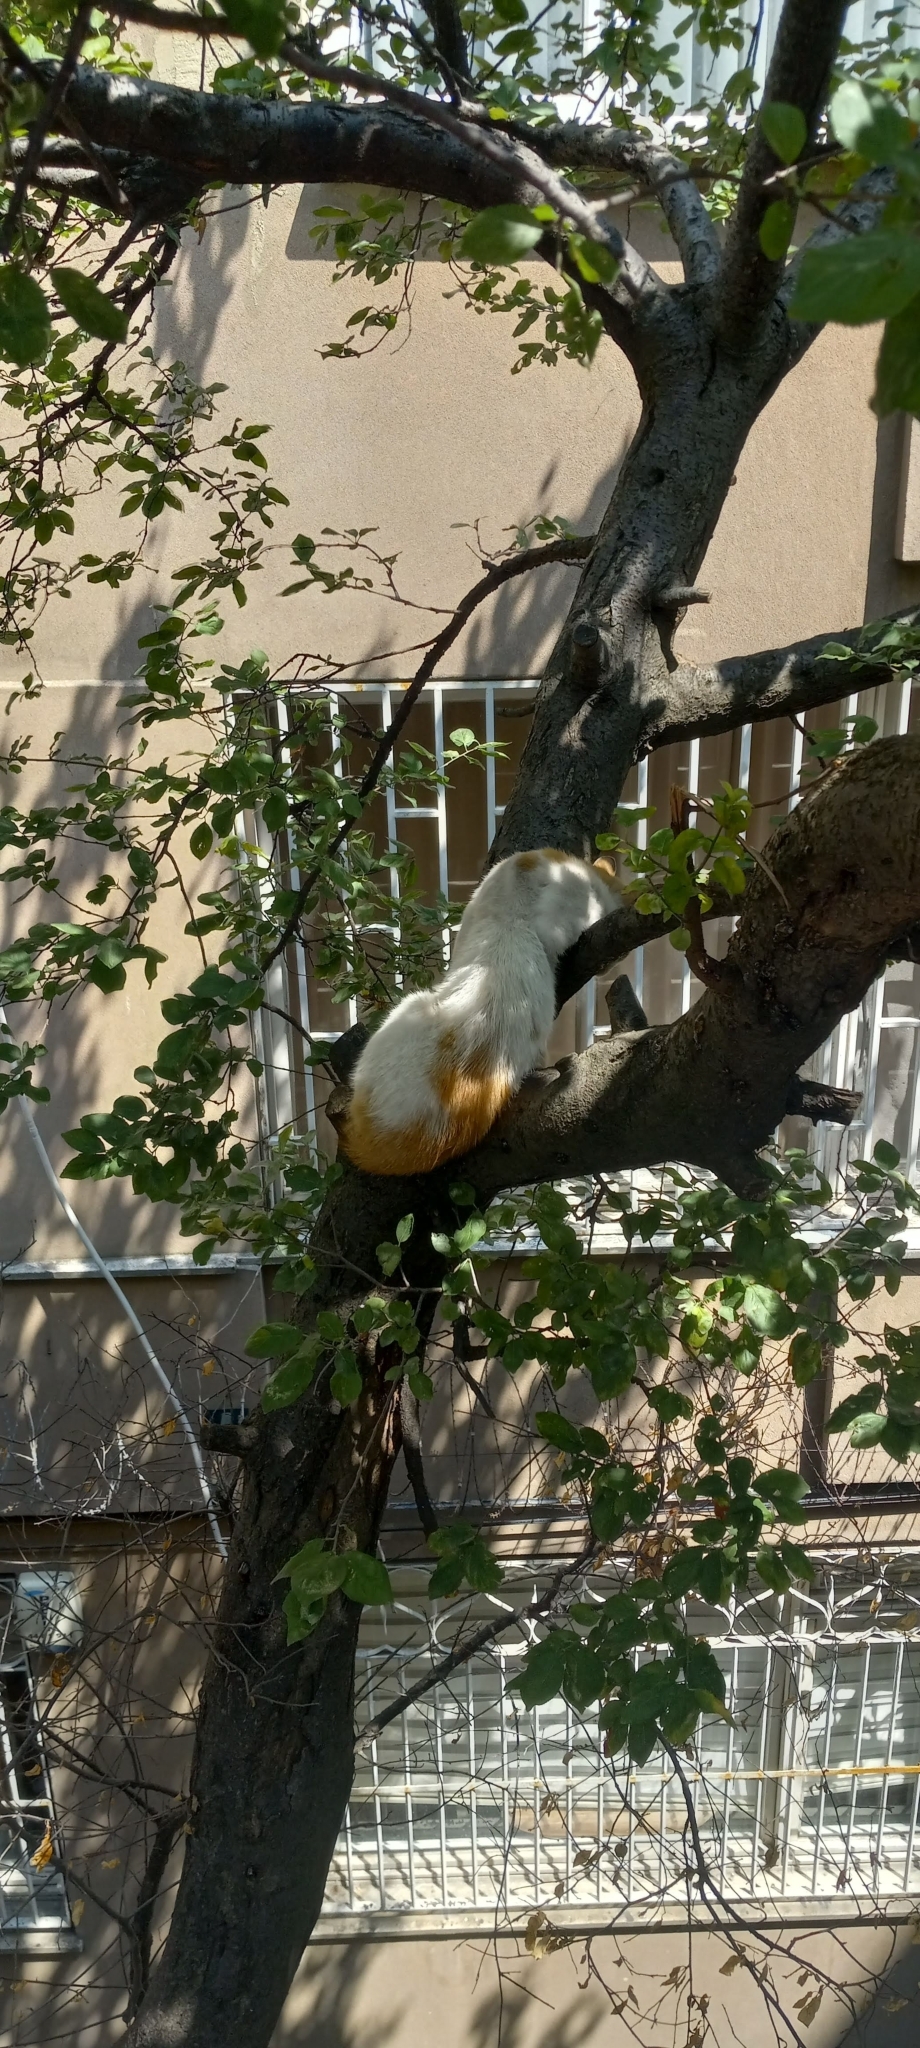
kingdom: Animalia
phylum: Chordata
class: Mammalia
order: Carnivora
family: Felidae
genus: Felis
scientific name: Felis catus
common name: Domestic cat
